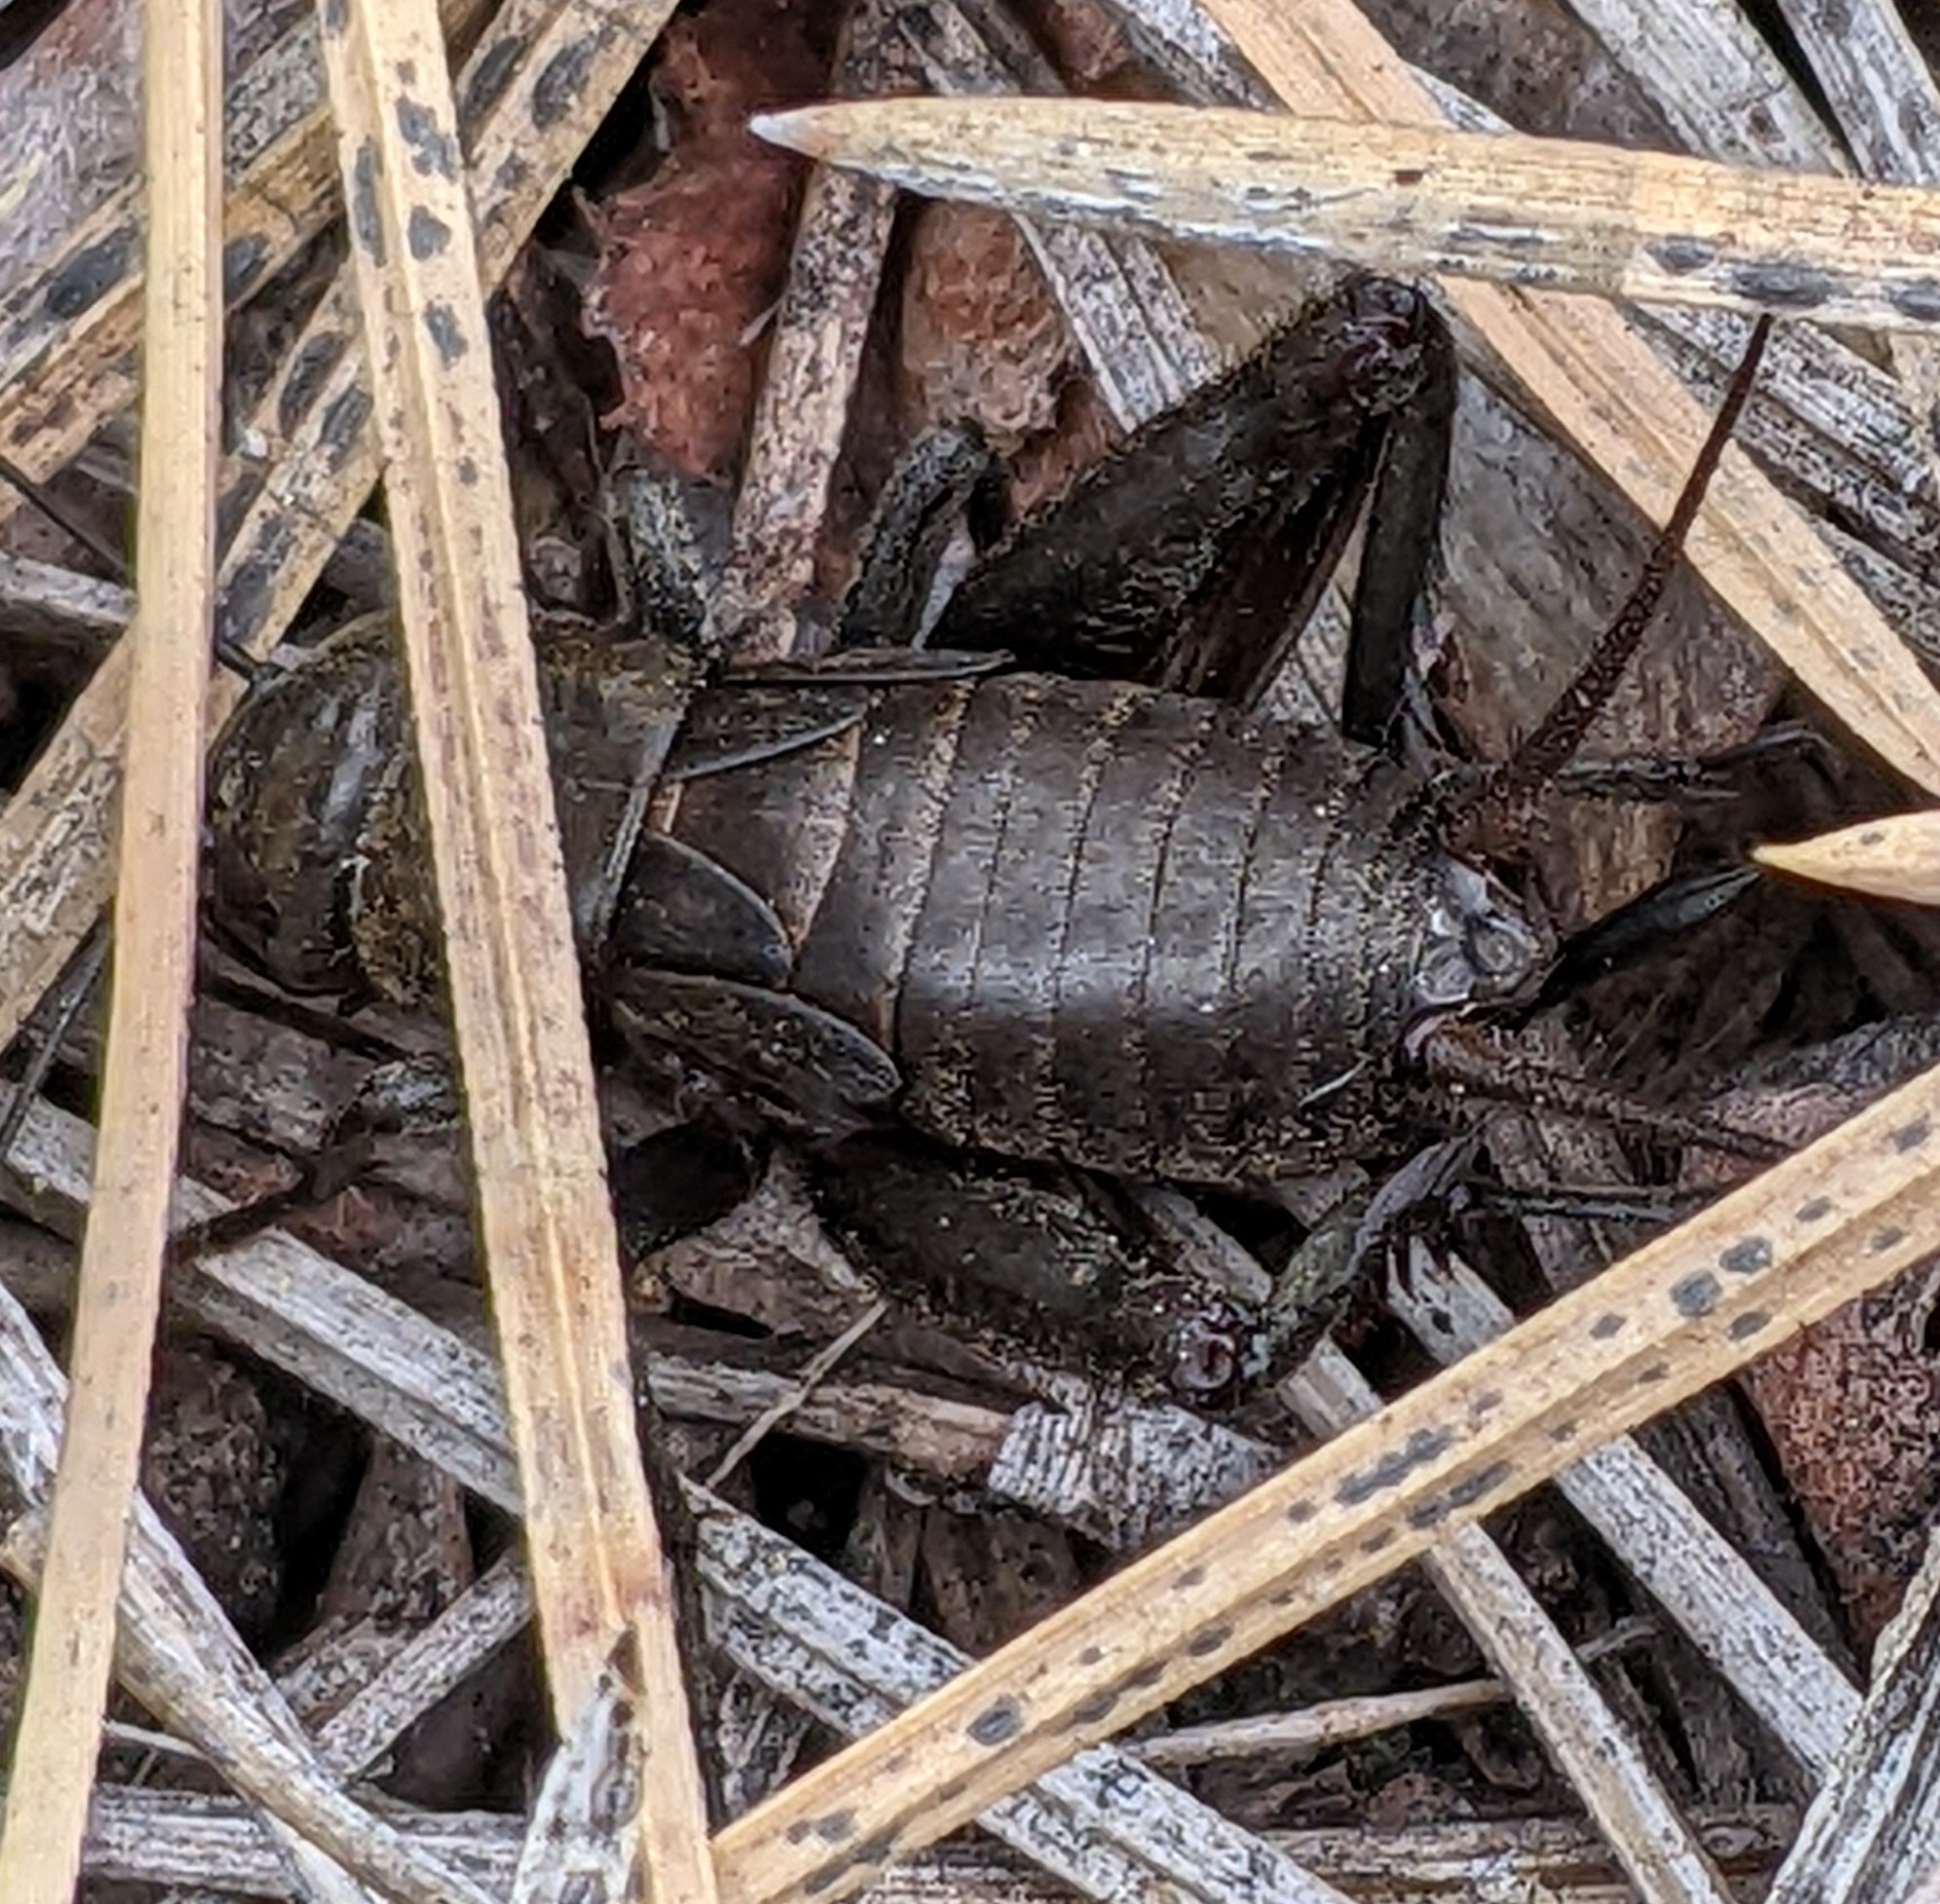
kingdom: Animalia
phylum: Arthropoda
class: Insecta
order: Orthoptera
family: Gryllidae
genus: Gryllus
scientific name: Gryllus saxatilis
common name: Western rock-loving field cricket
